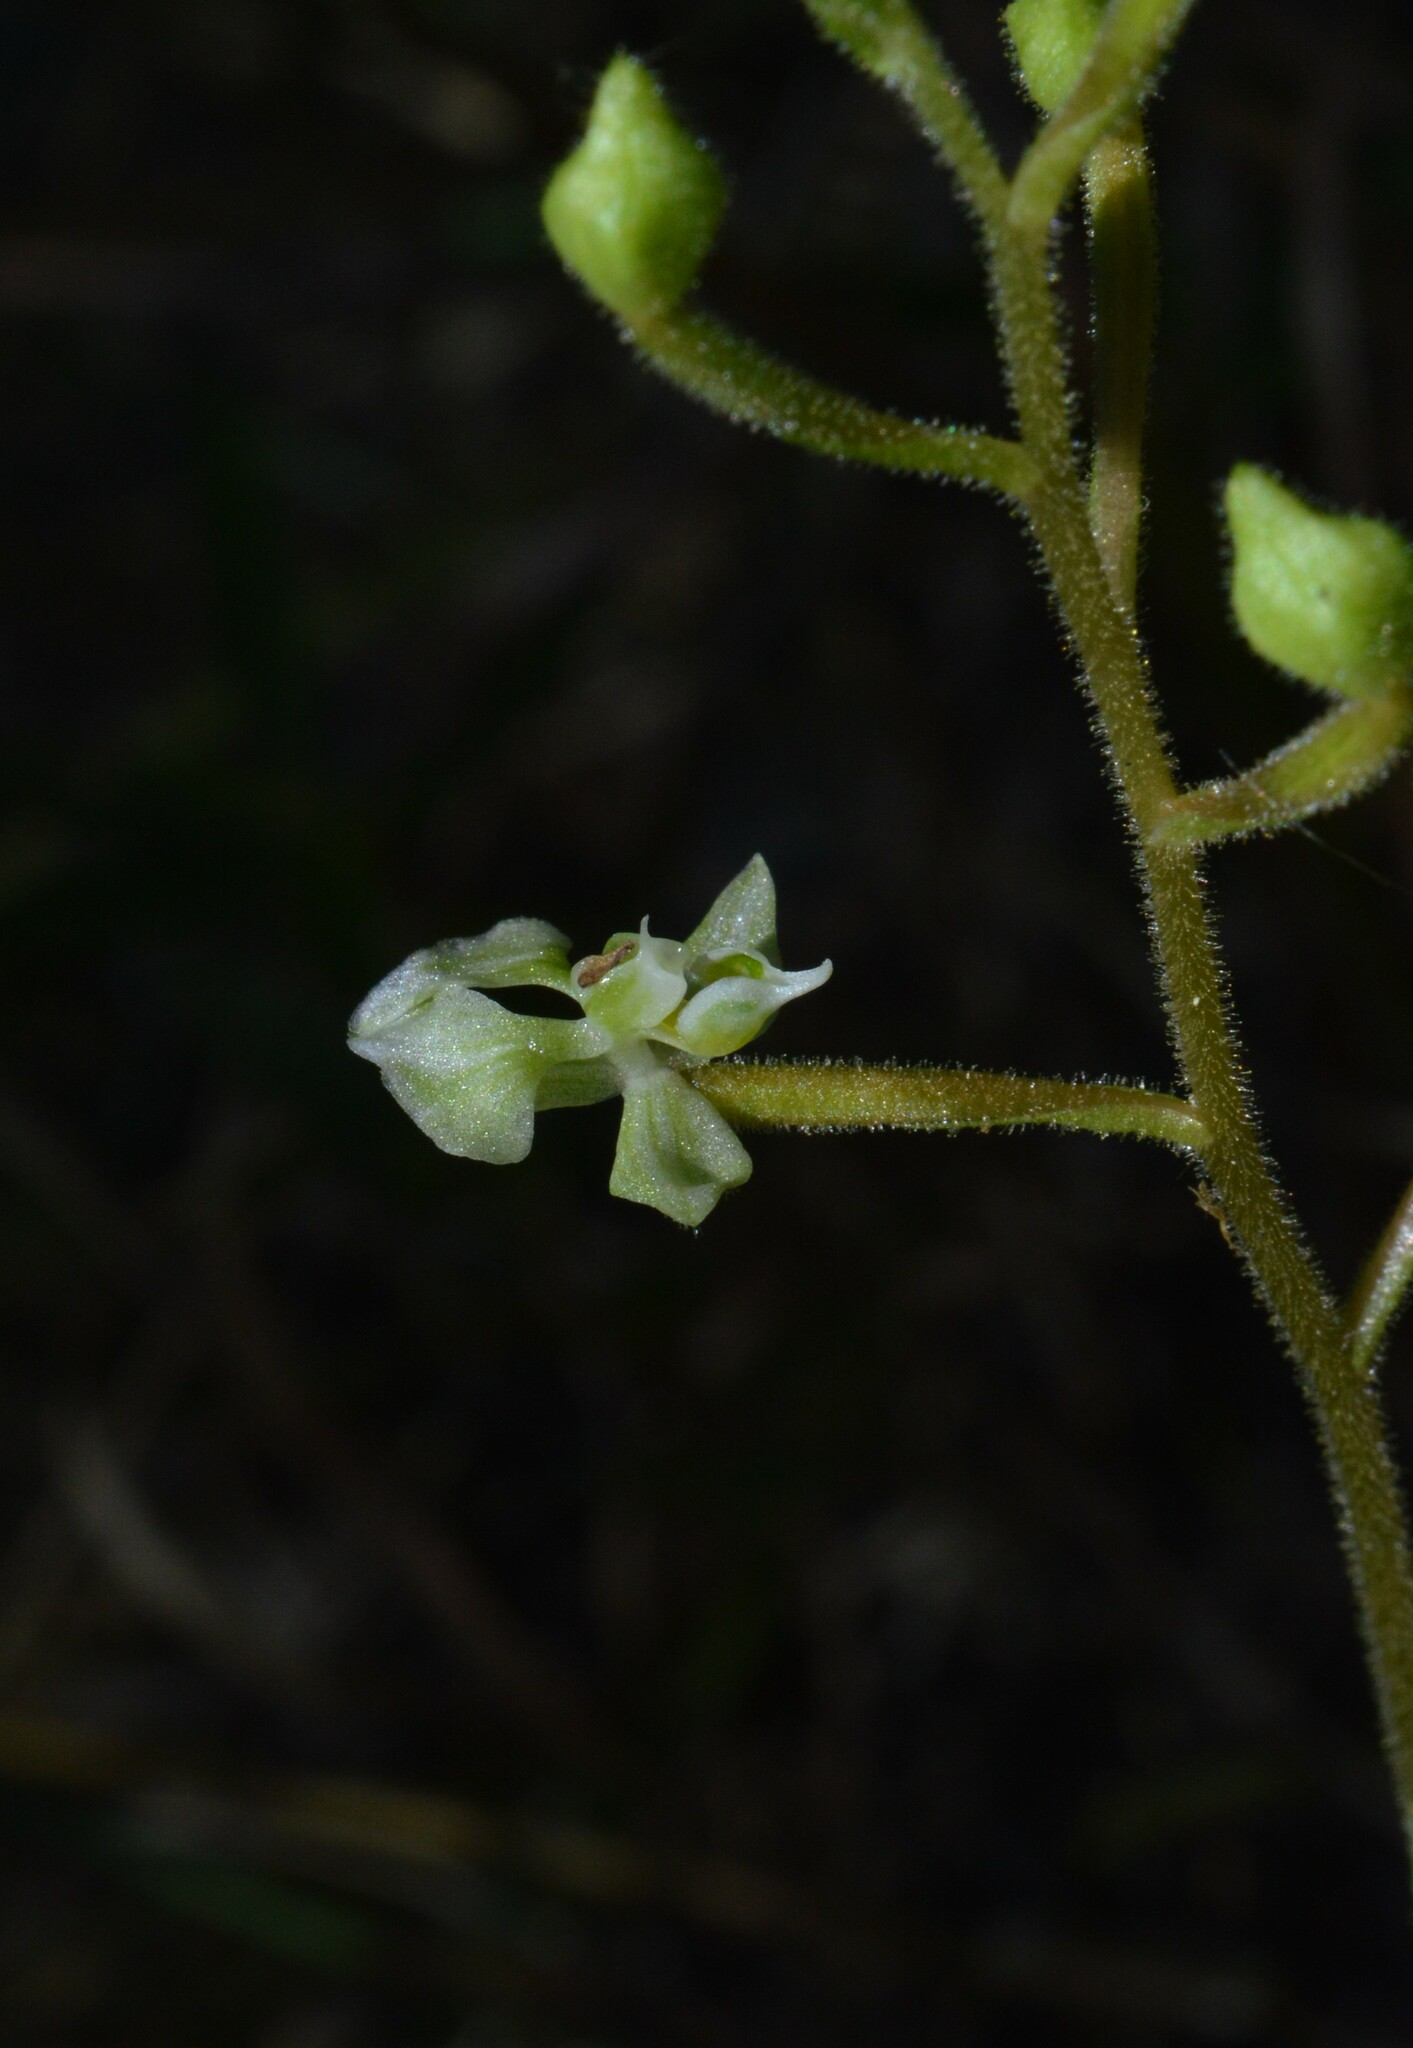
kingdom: Plantae
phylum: Tracheophyta
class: Liliopsida
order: Asparagales
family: Orchidaceae
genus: Ponthieva
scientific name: Ponthieva racemosa
